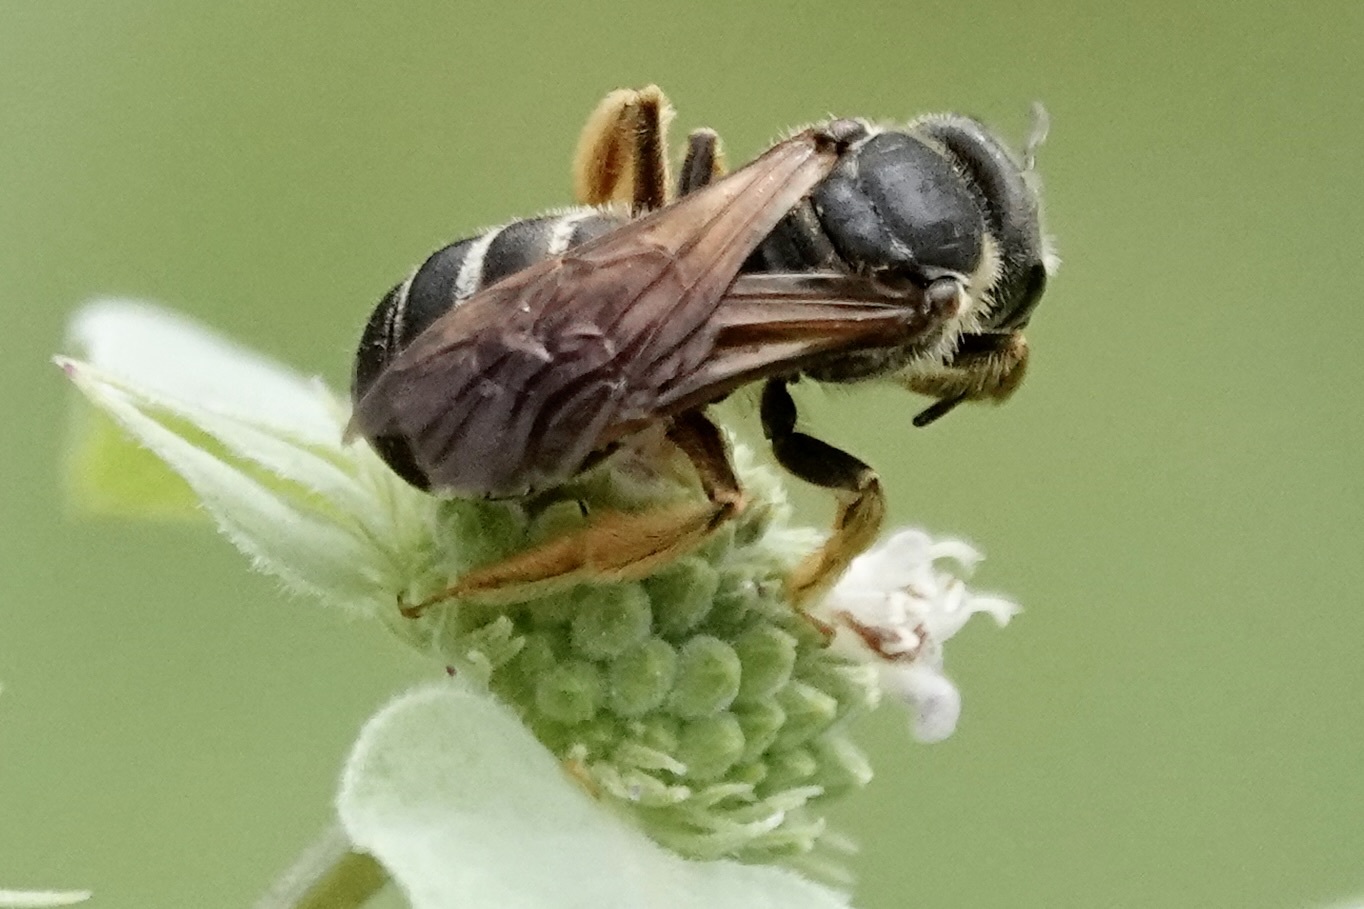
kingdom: Animalia
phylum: Arthropoda
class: Insecta
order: Hymenoptera
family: Halictidae
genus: Halictus
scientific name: Halictus parallelus
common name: Parallel-striped sweat bee
